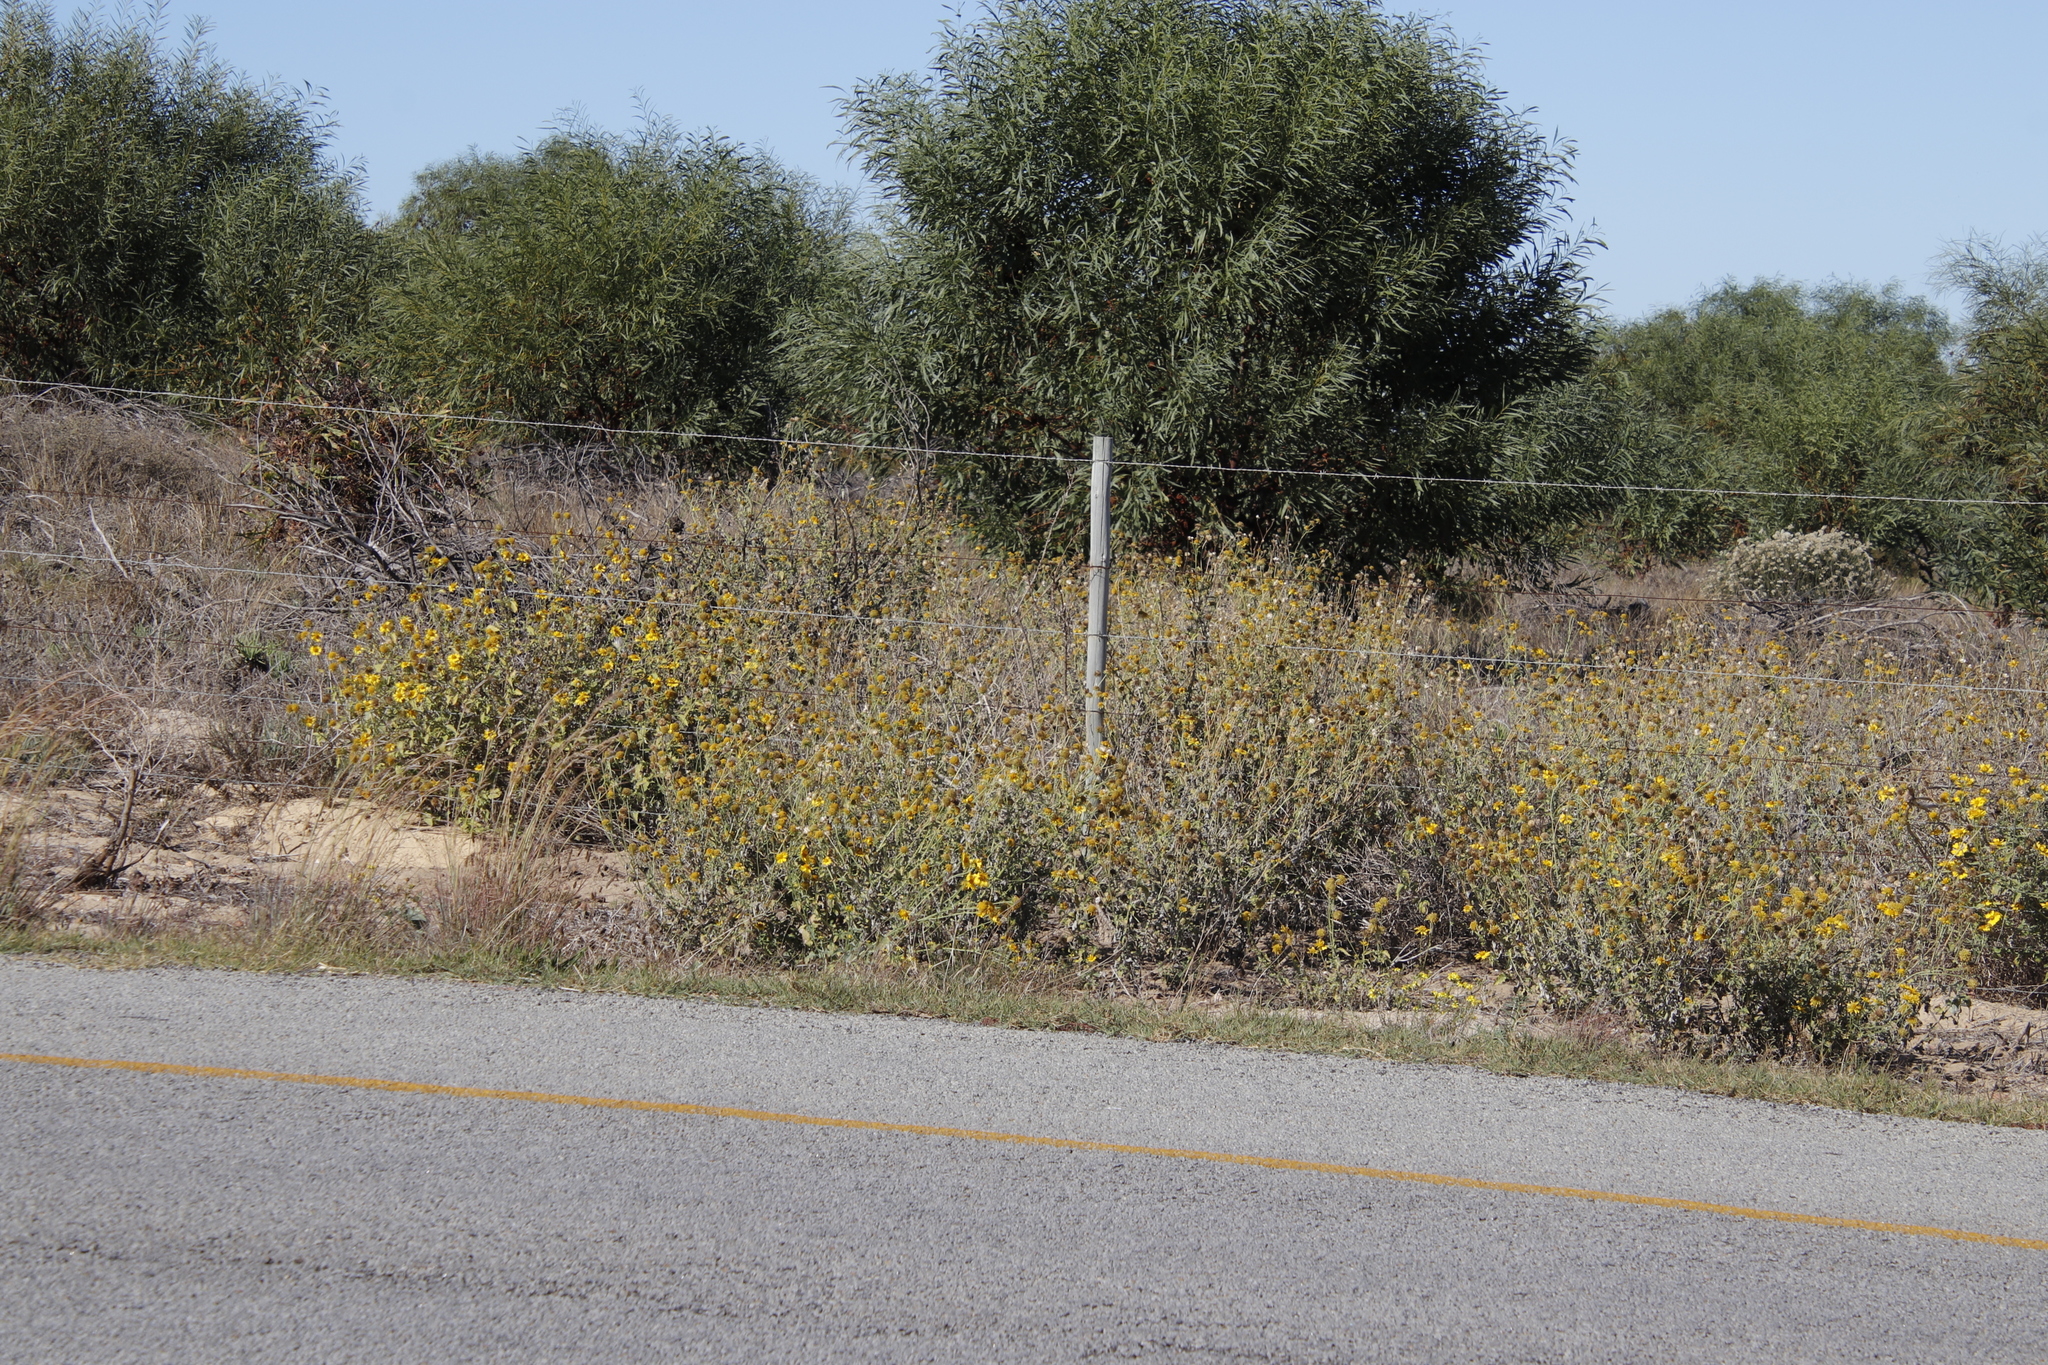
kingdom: Plantae
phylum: Tracheophyta
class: Magnoliopsida
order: Asterales
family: Asteraceae
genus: Verbesina
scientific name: Verbesina encelioides
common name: Golden crownbeard
